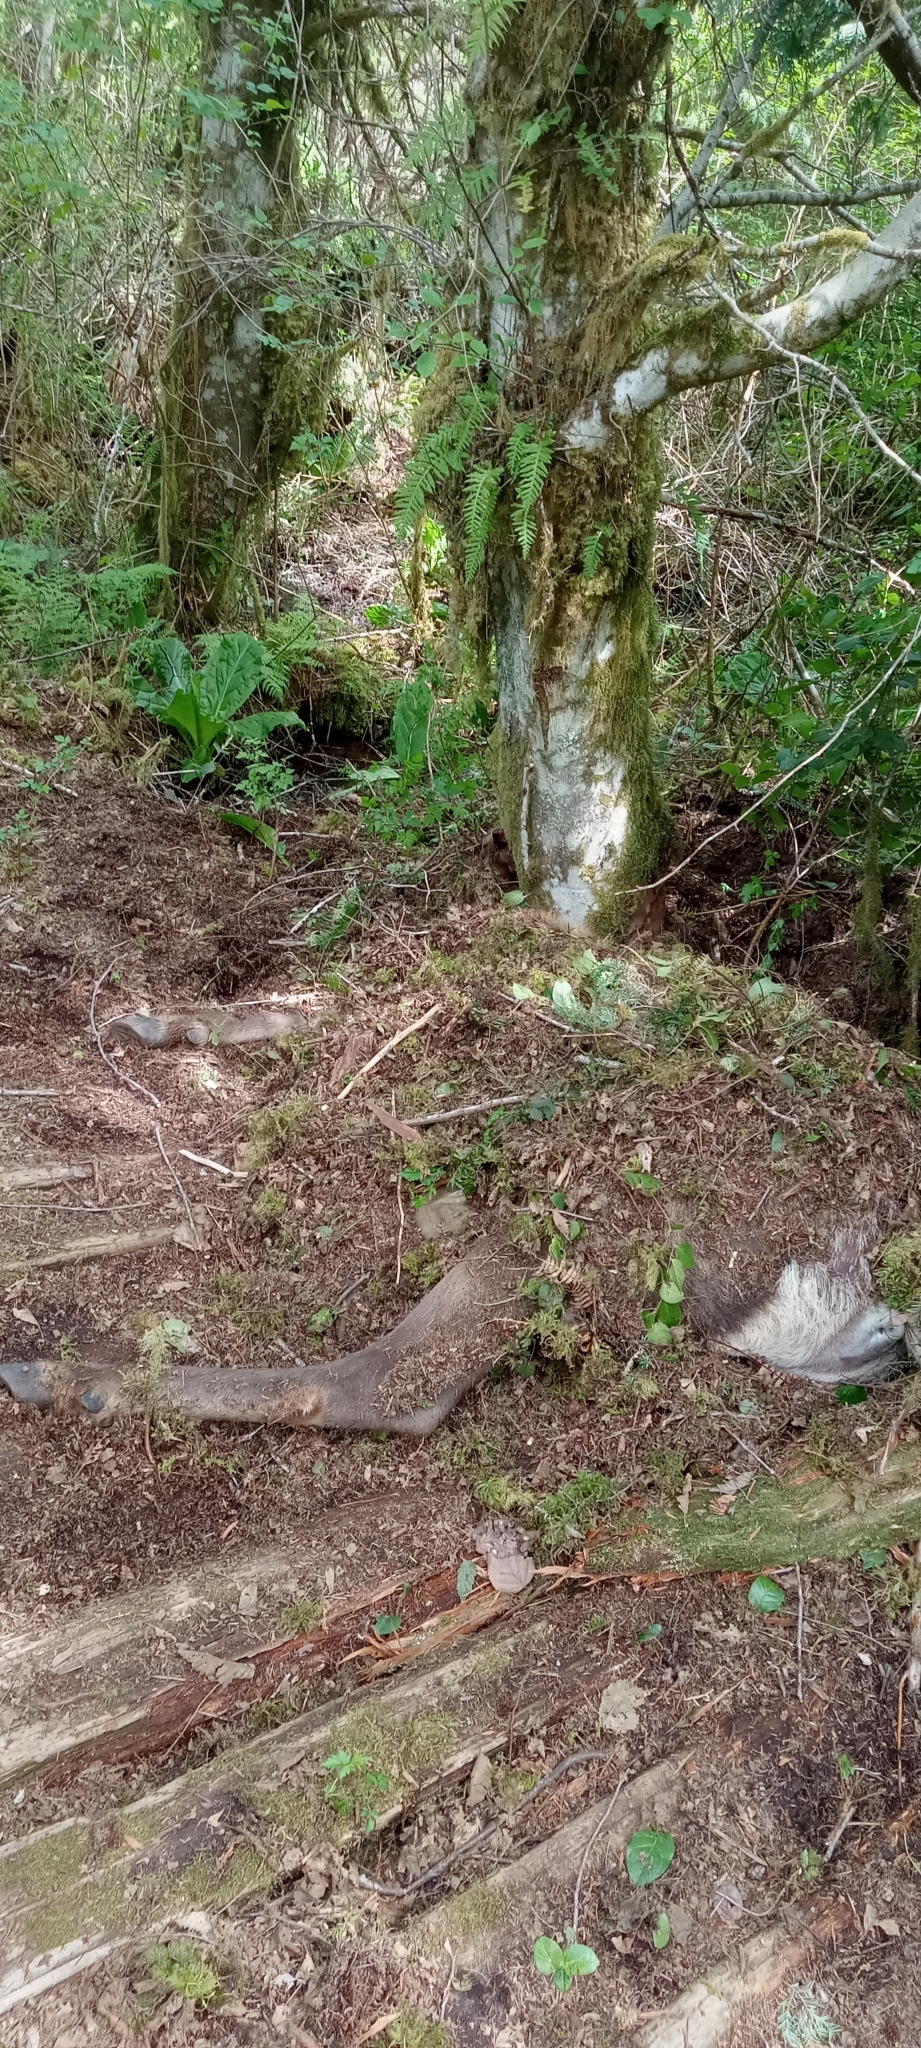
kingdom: Animalia
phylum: Chordata
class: Mammalia
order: Artiodactyla
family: Cervidae
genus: Cervus
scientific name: Cervus elaphus
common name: Red deer
